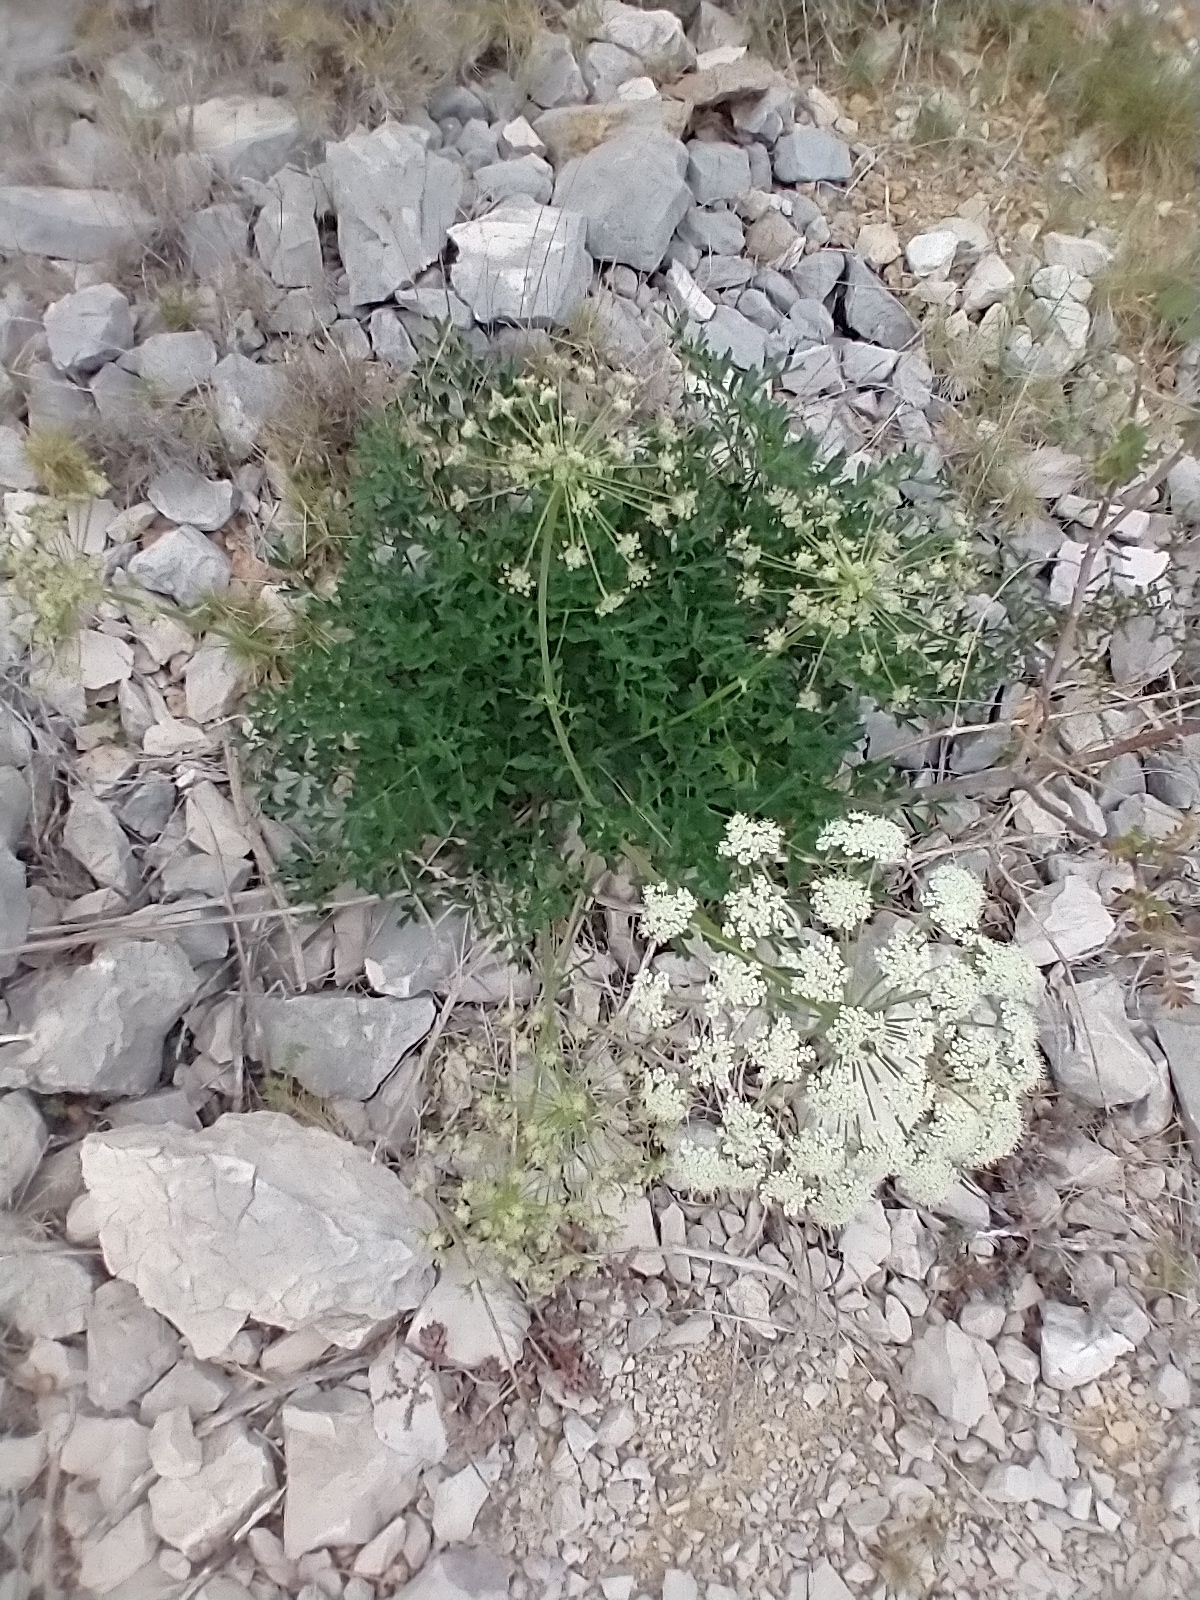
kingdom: Plantae
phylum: Tracheophyta
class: Magnoliopsida
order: Apiales
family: Apiaceae
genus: Laserpitium
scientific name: Laserpitium gallicum
